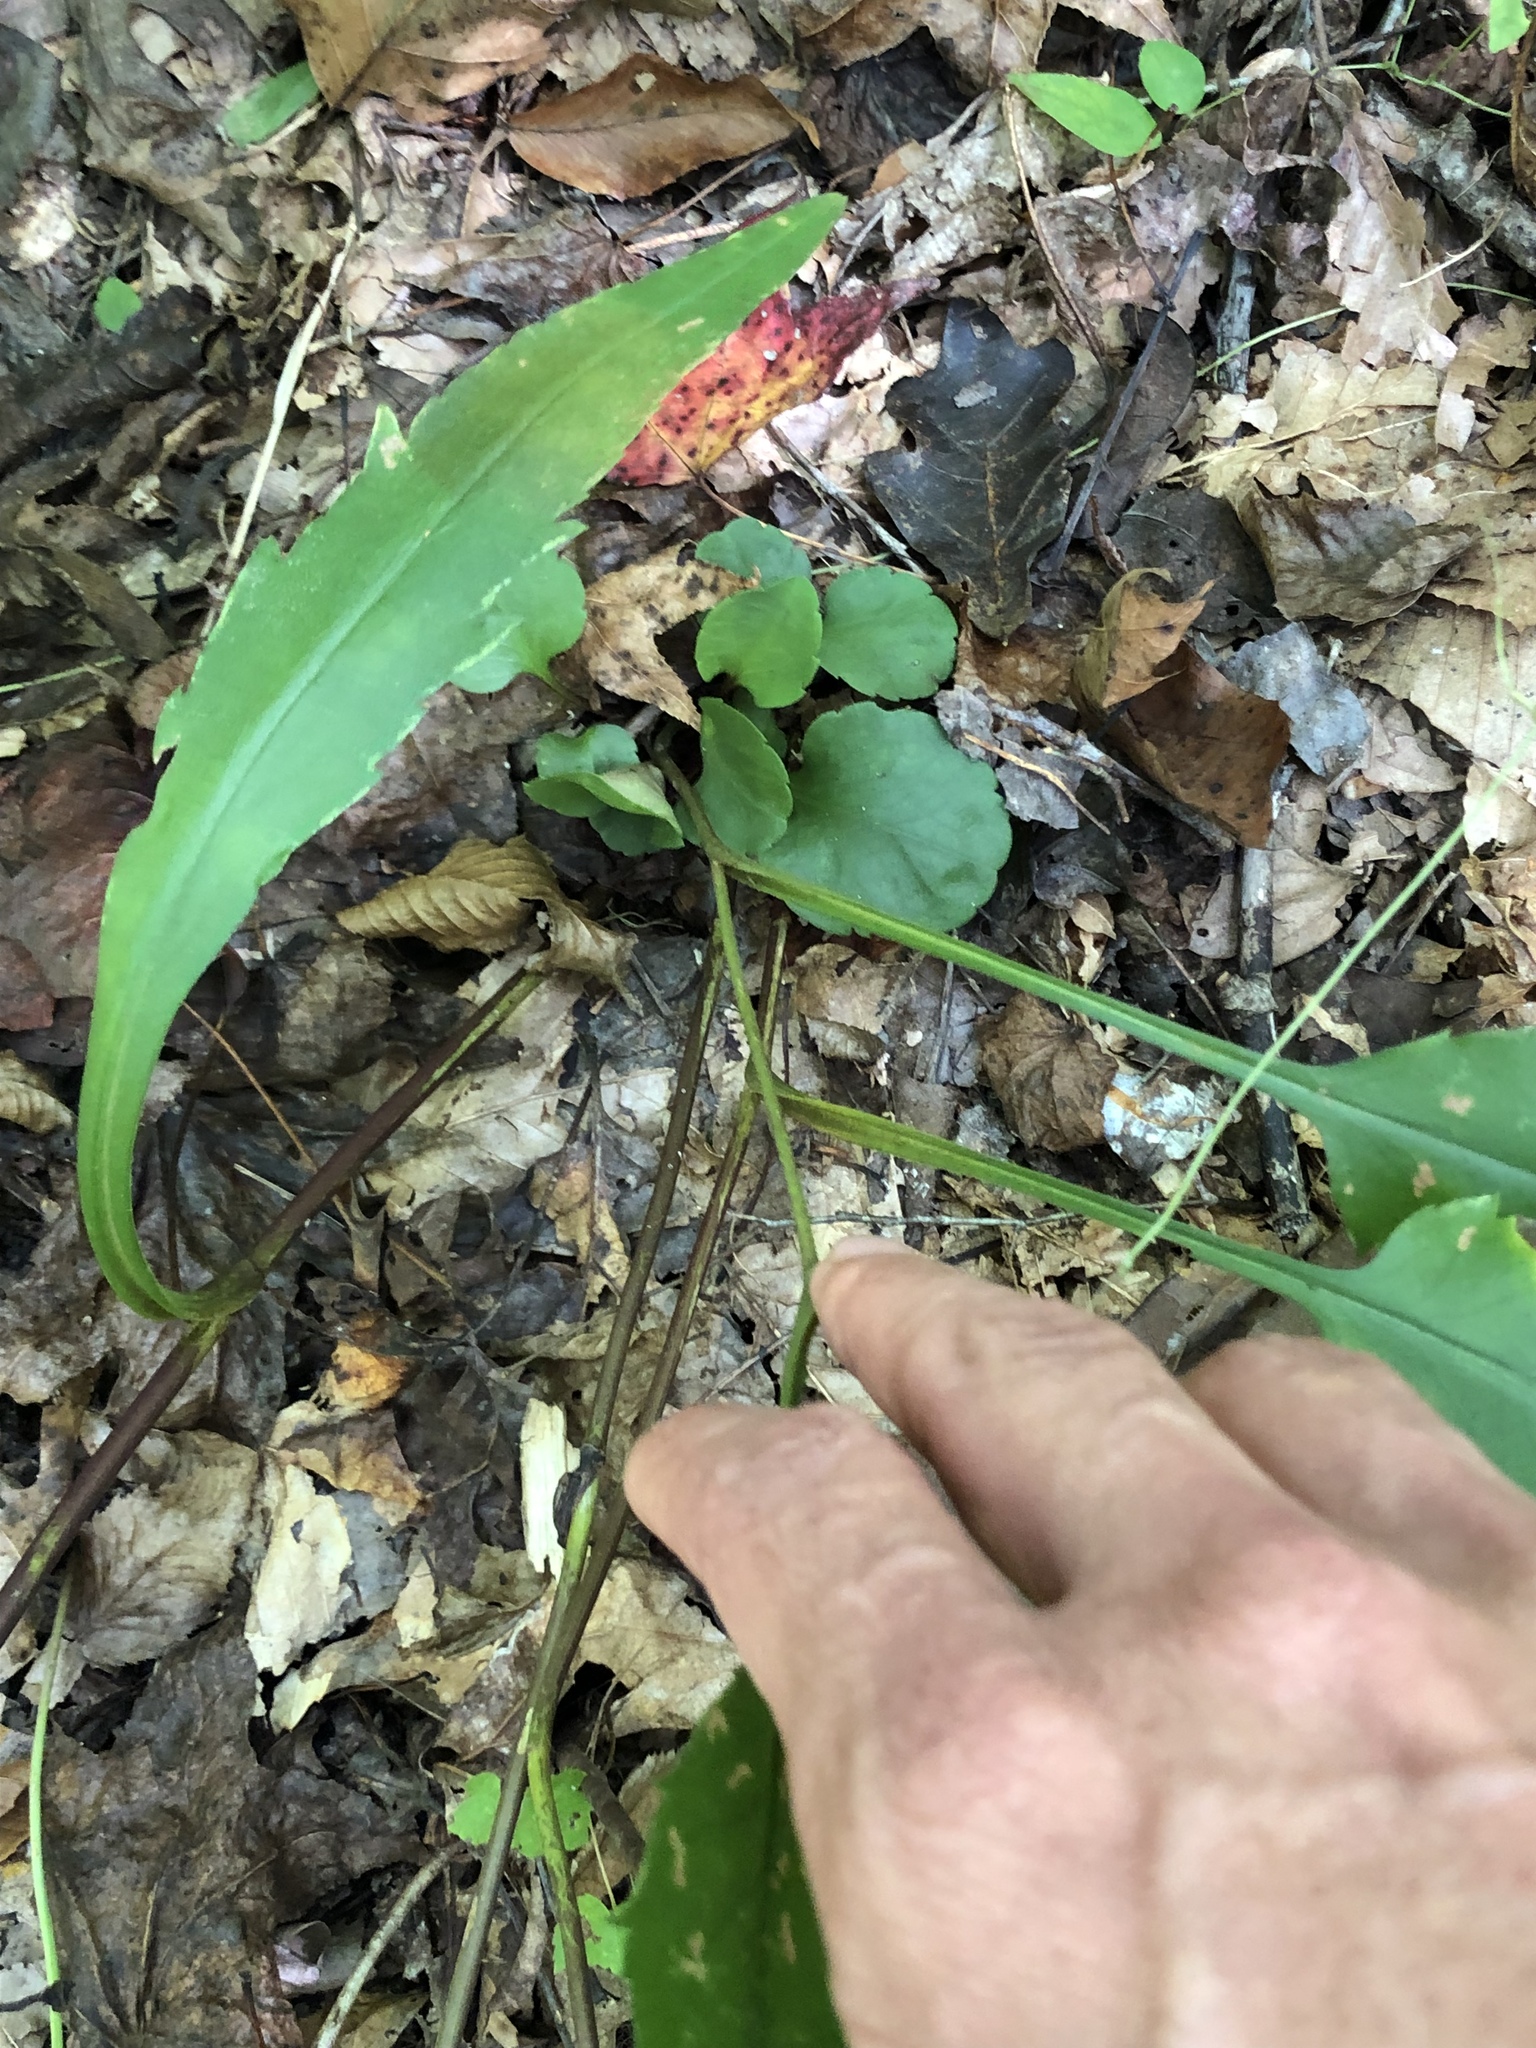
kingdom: Plantae
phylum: Tracheophyta
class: Magnoliopsida
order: Asterales
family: Asteraceae
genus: Symphyotrichum
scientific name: Symphyotrichum retroflexum
